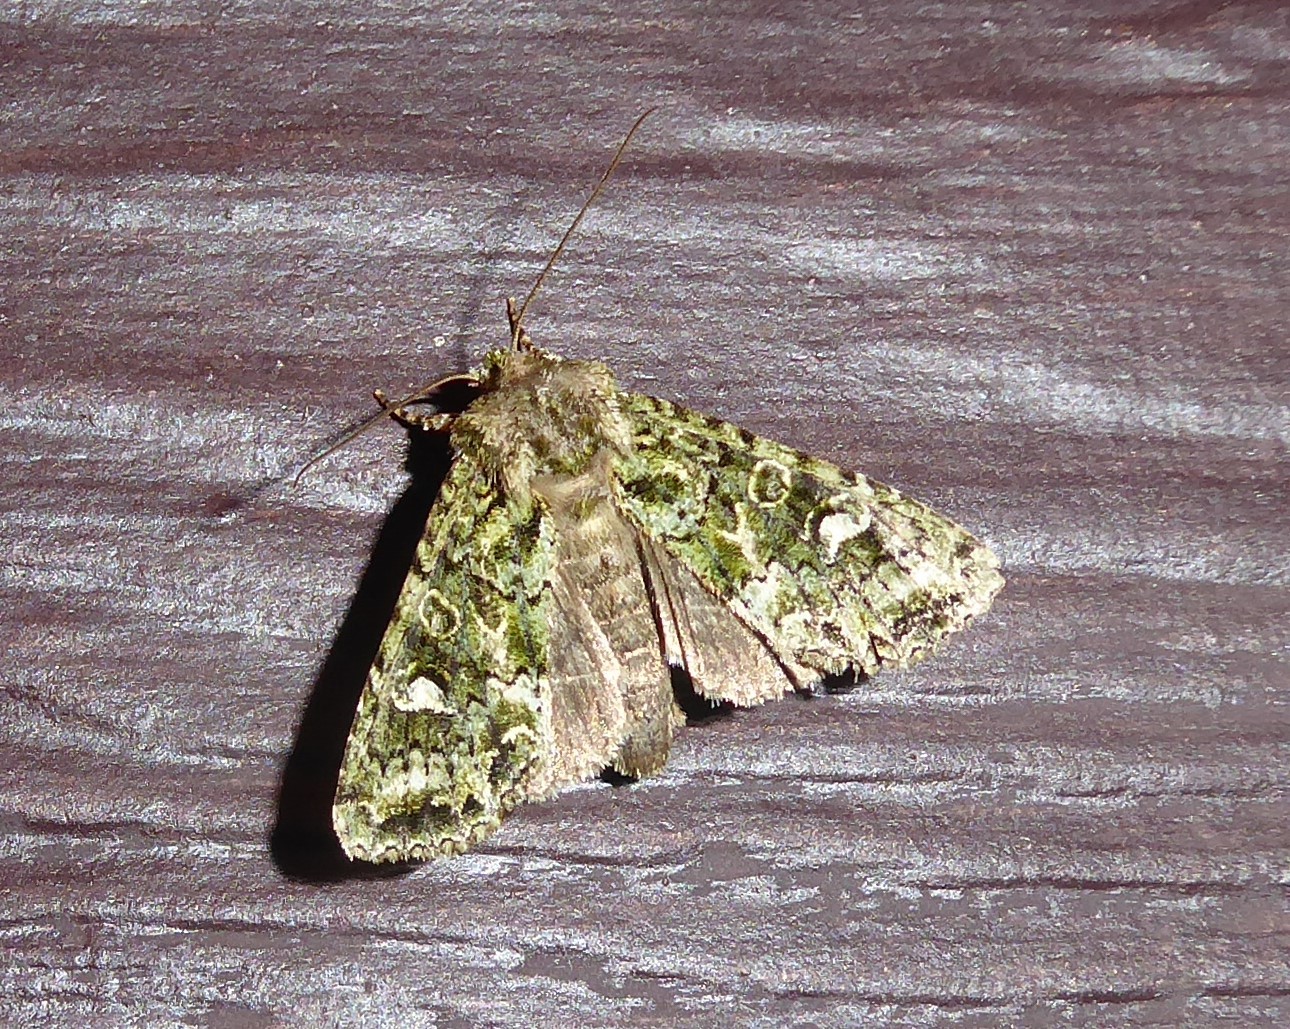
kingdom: Animalia
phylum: Arthropoda
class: Insecta
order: Lepidoptera
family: Noctuidae
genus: Ichneutica
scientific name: Ichneutica
